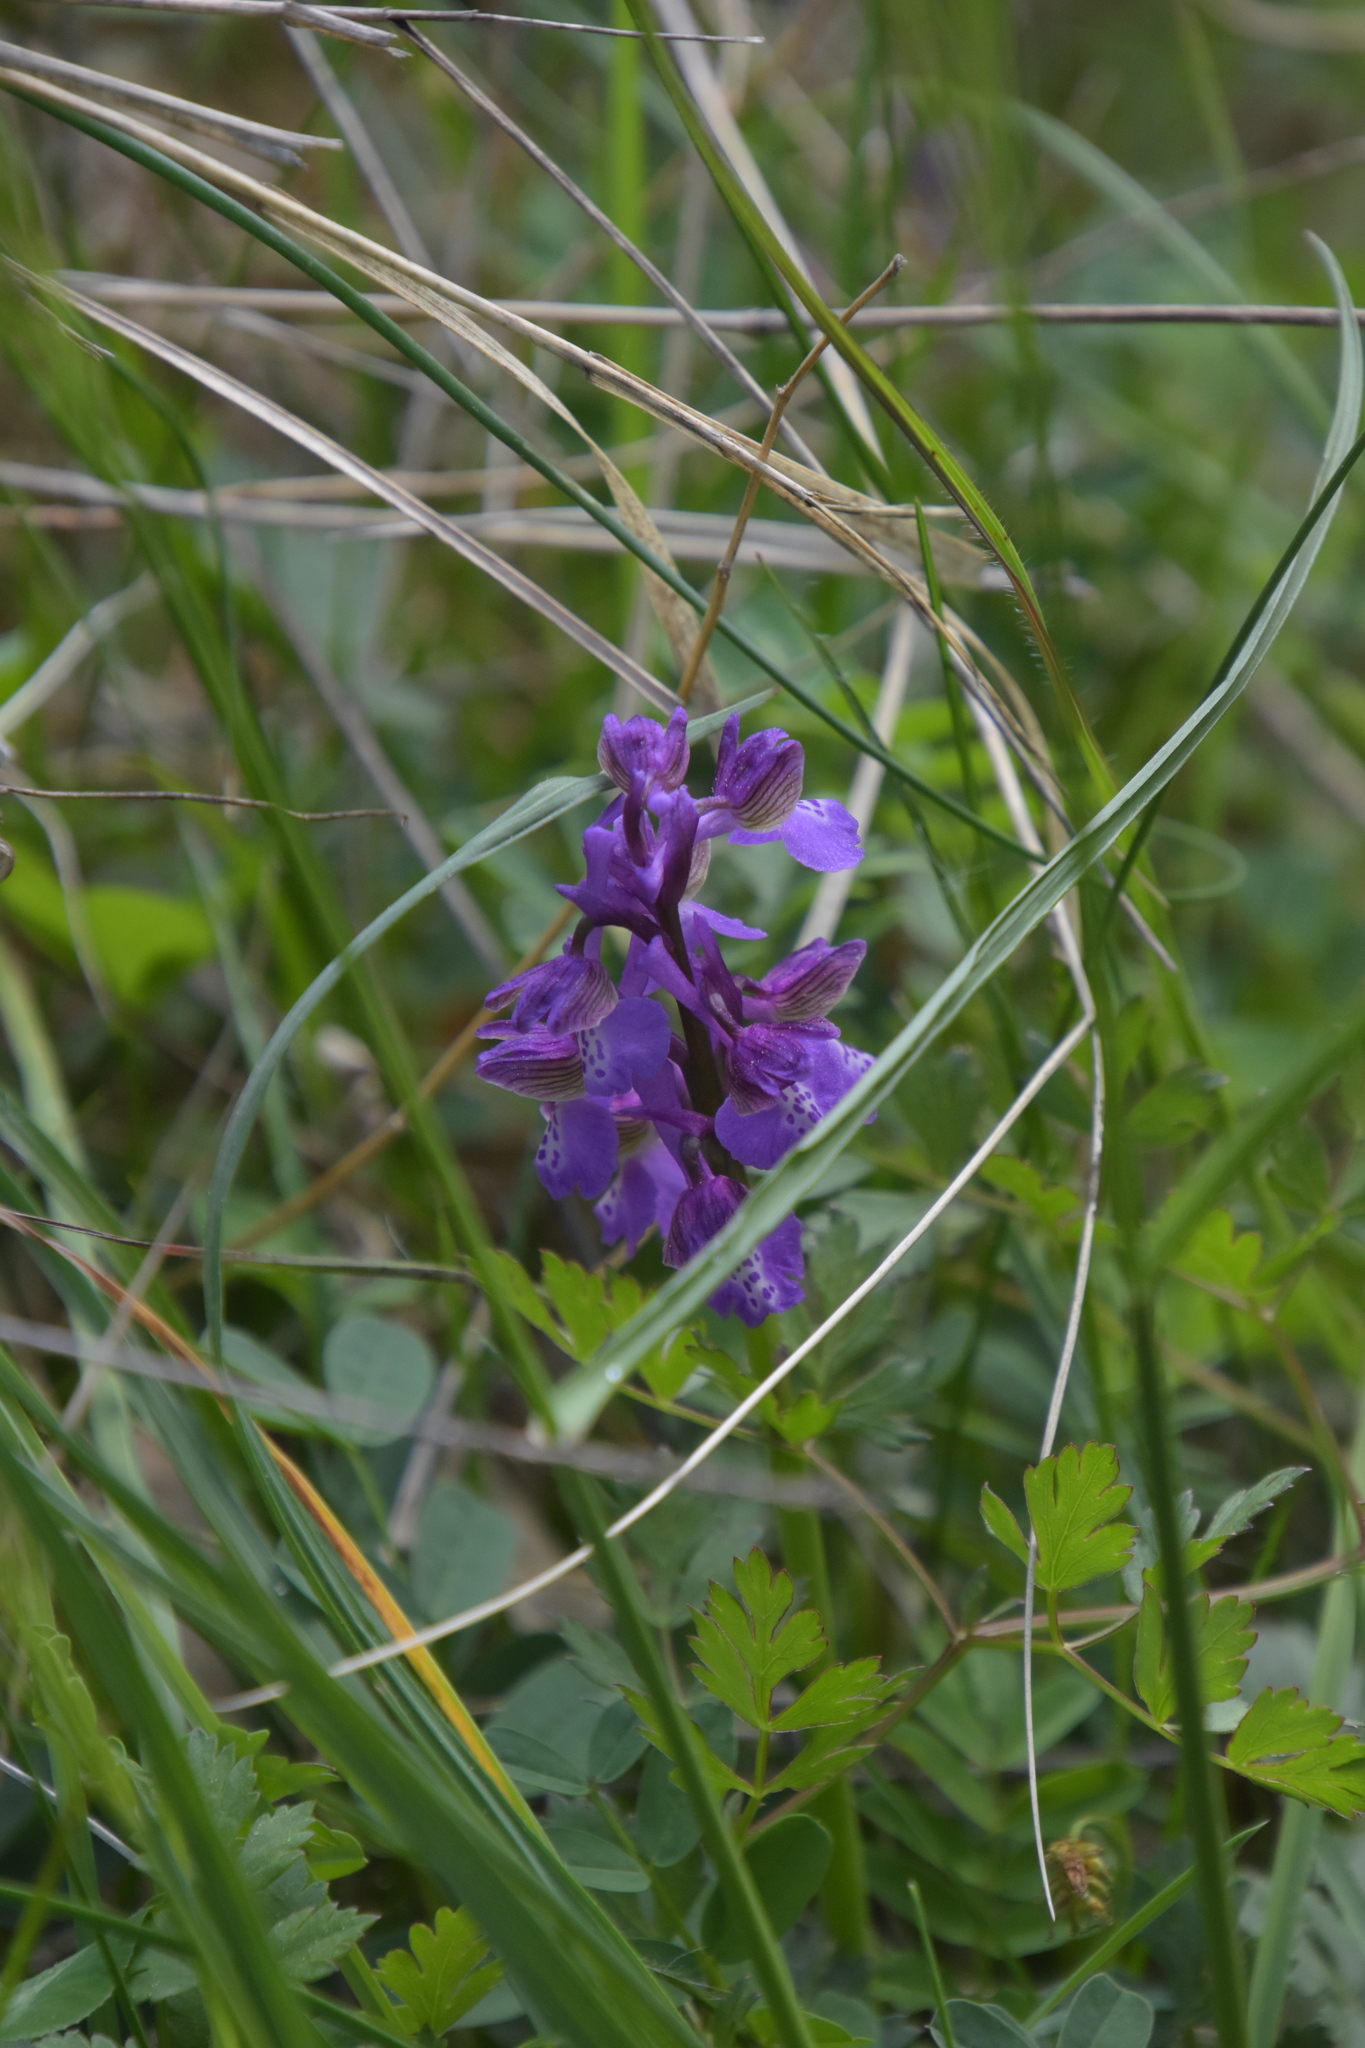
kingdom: Plantae
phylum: Tracheophyta
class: Liliopsida
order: Asparagales
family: Orchidaceae
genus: Anacamptis
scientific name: Anacamptis morio
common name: Green-winged orchid
